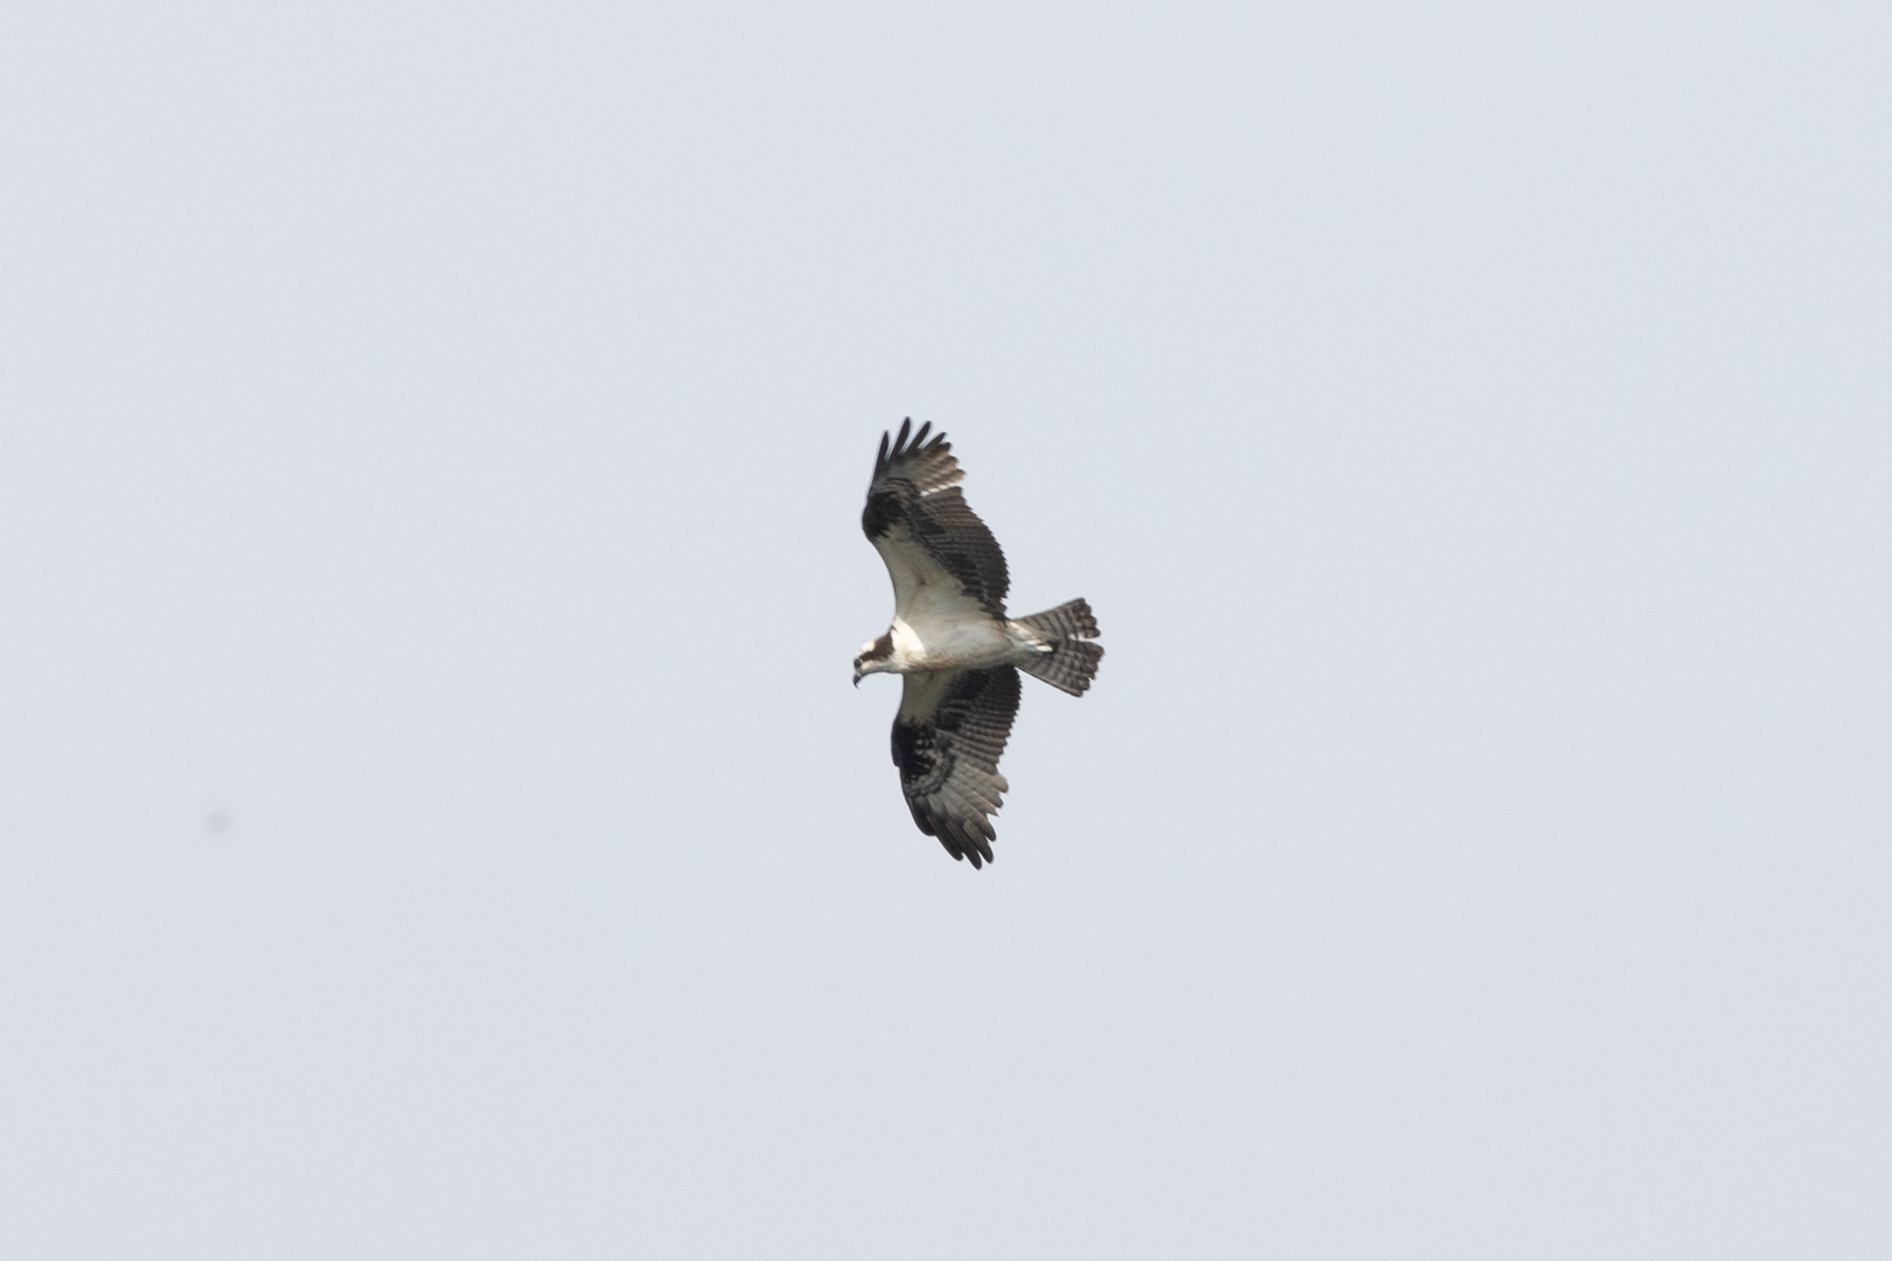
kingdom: Animalia
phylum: Chordata
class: Aves
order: Accipitriformes
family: Pandionidae
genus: Pandion
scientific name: Pandion haliaetus
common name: Osprey
